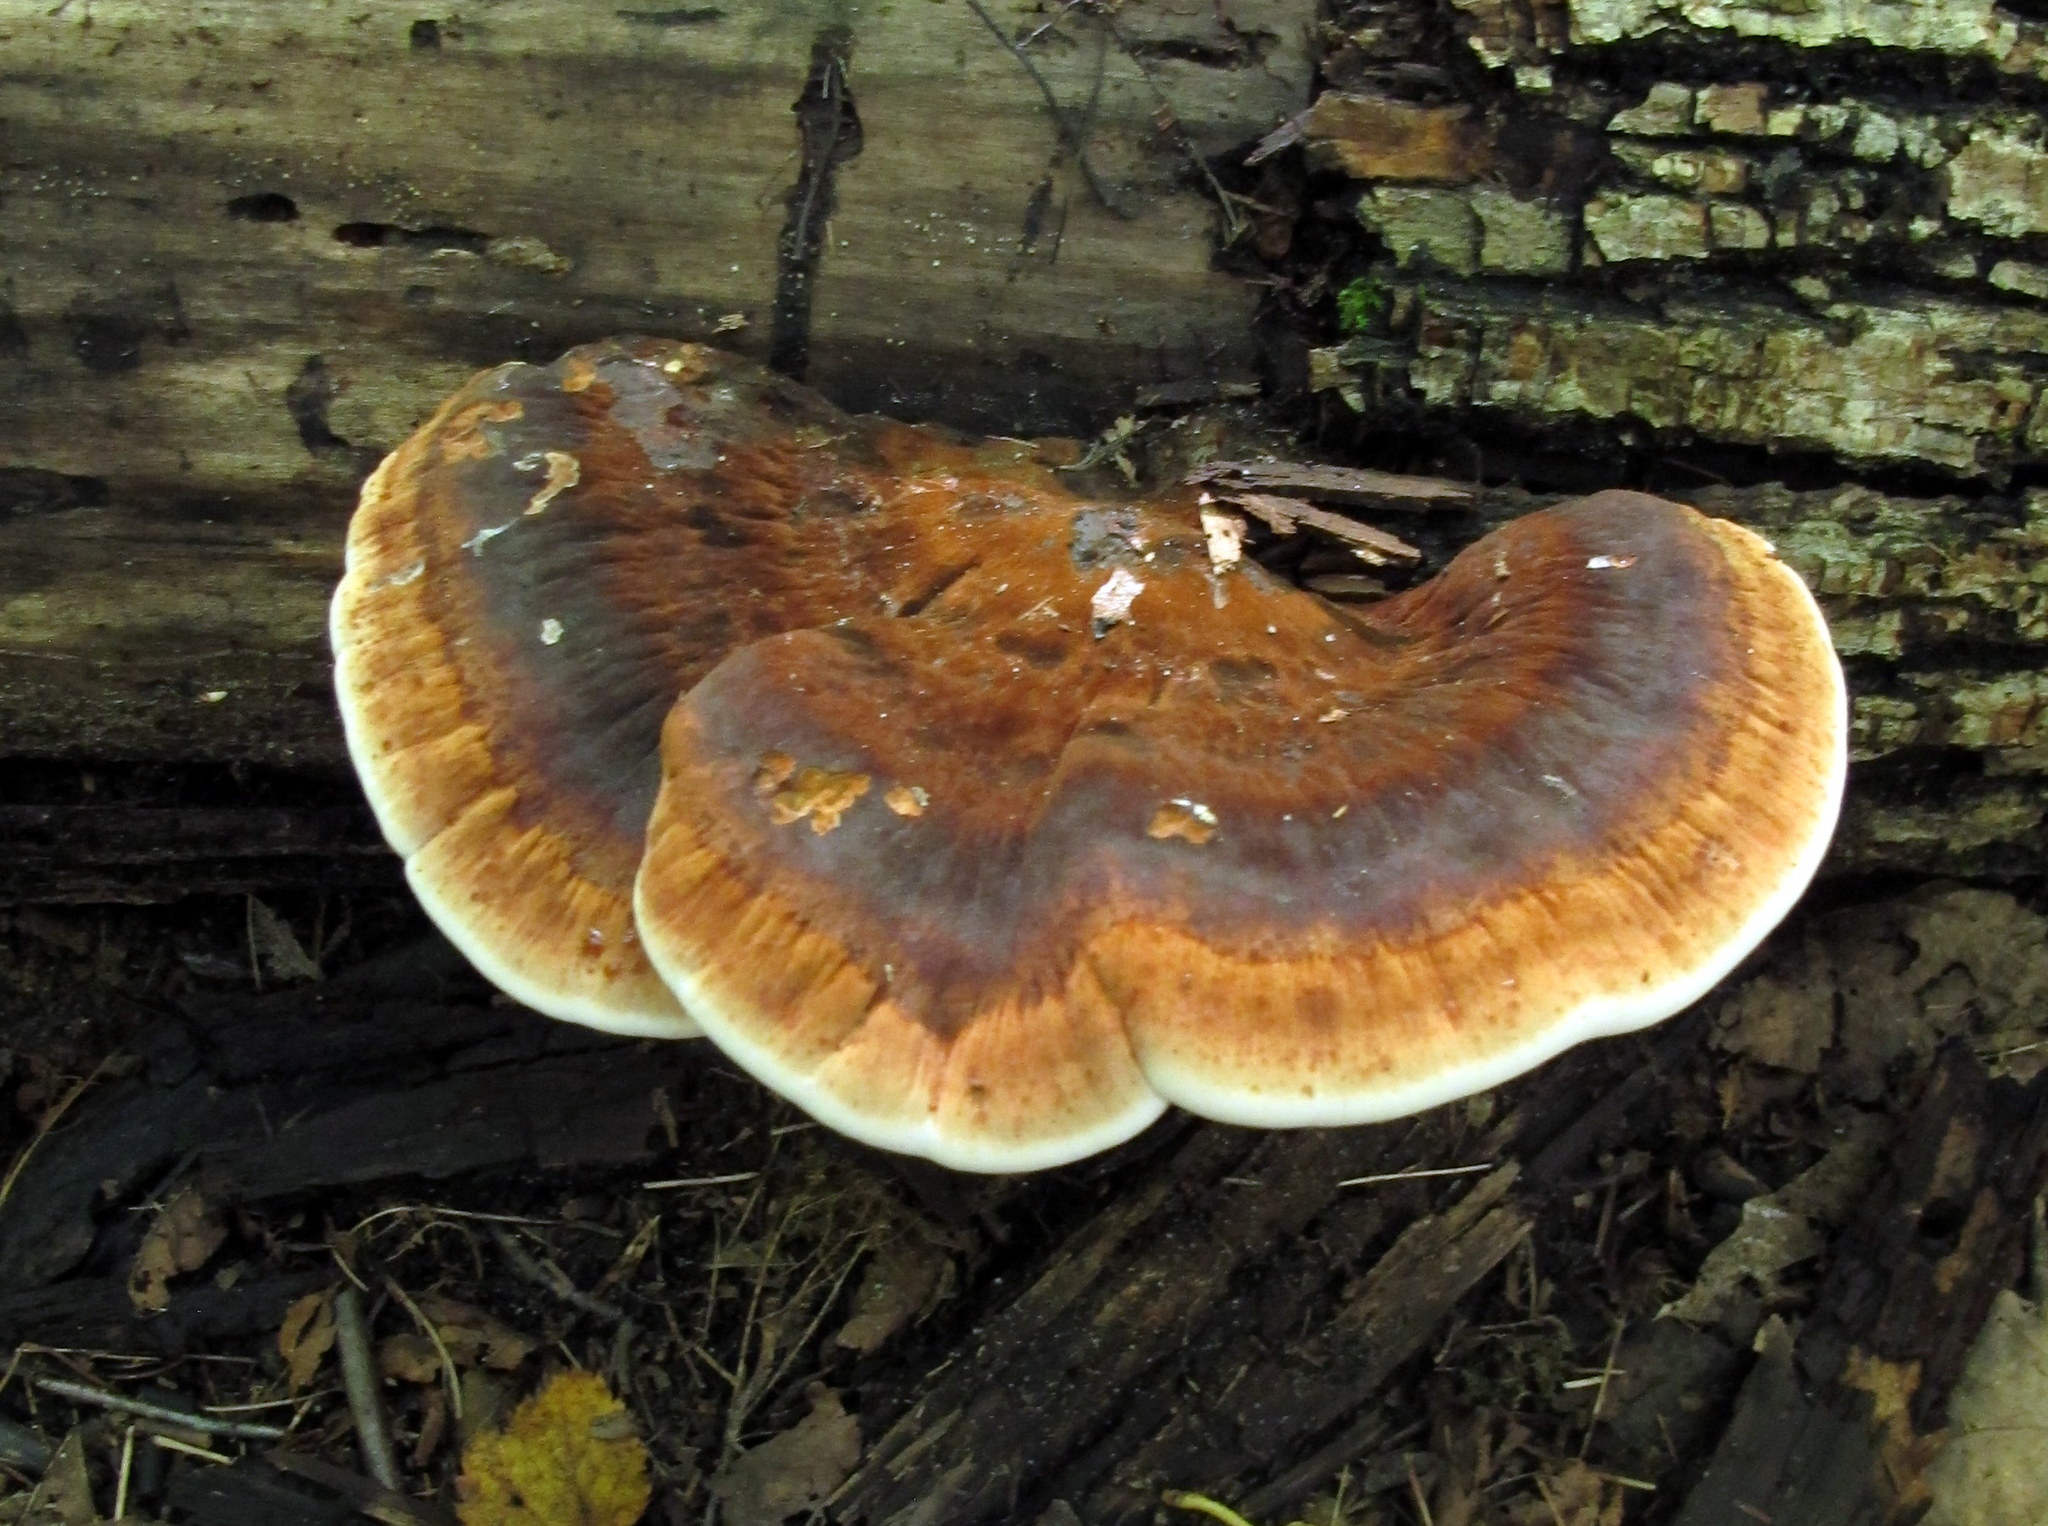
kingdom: Fungi
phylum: Basidiomycota
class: Agaricomycetes
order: Polyporales
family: Ischnodermataceae
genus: Ischnoderma
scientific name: Ischnoderma resinosum
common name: Resinous polypore
